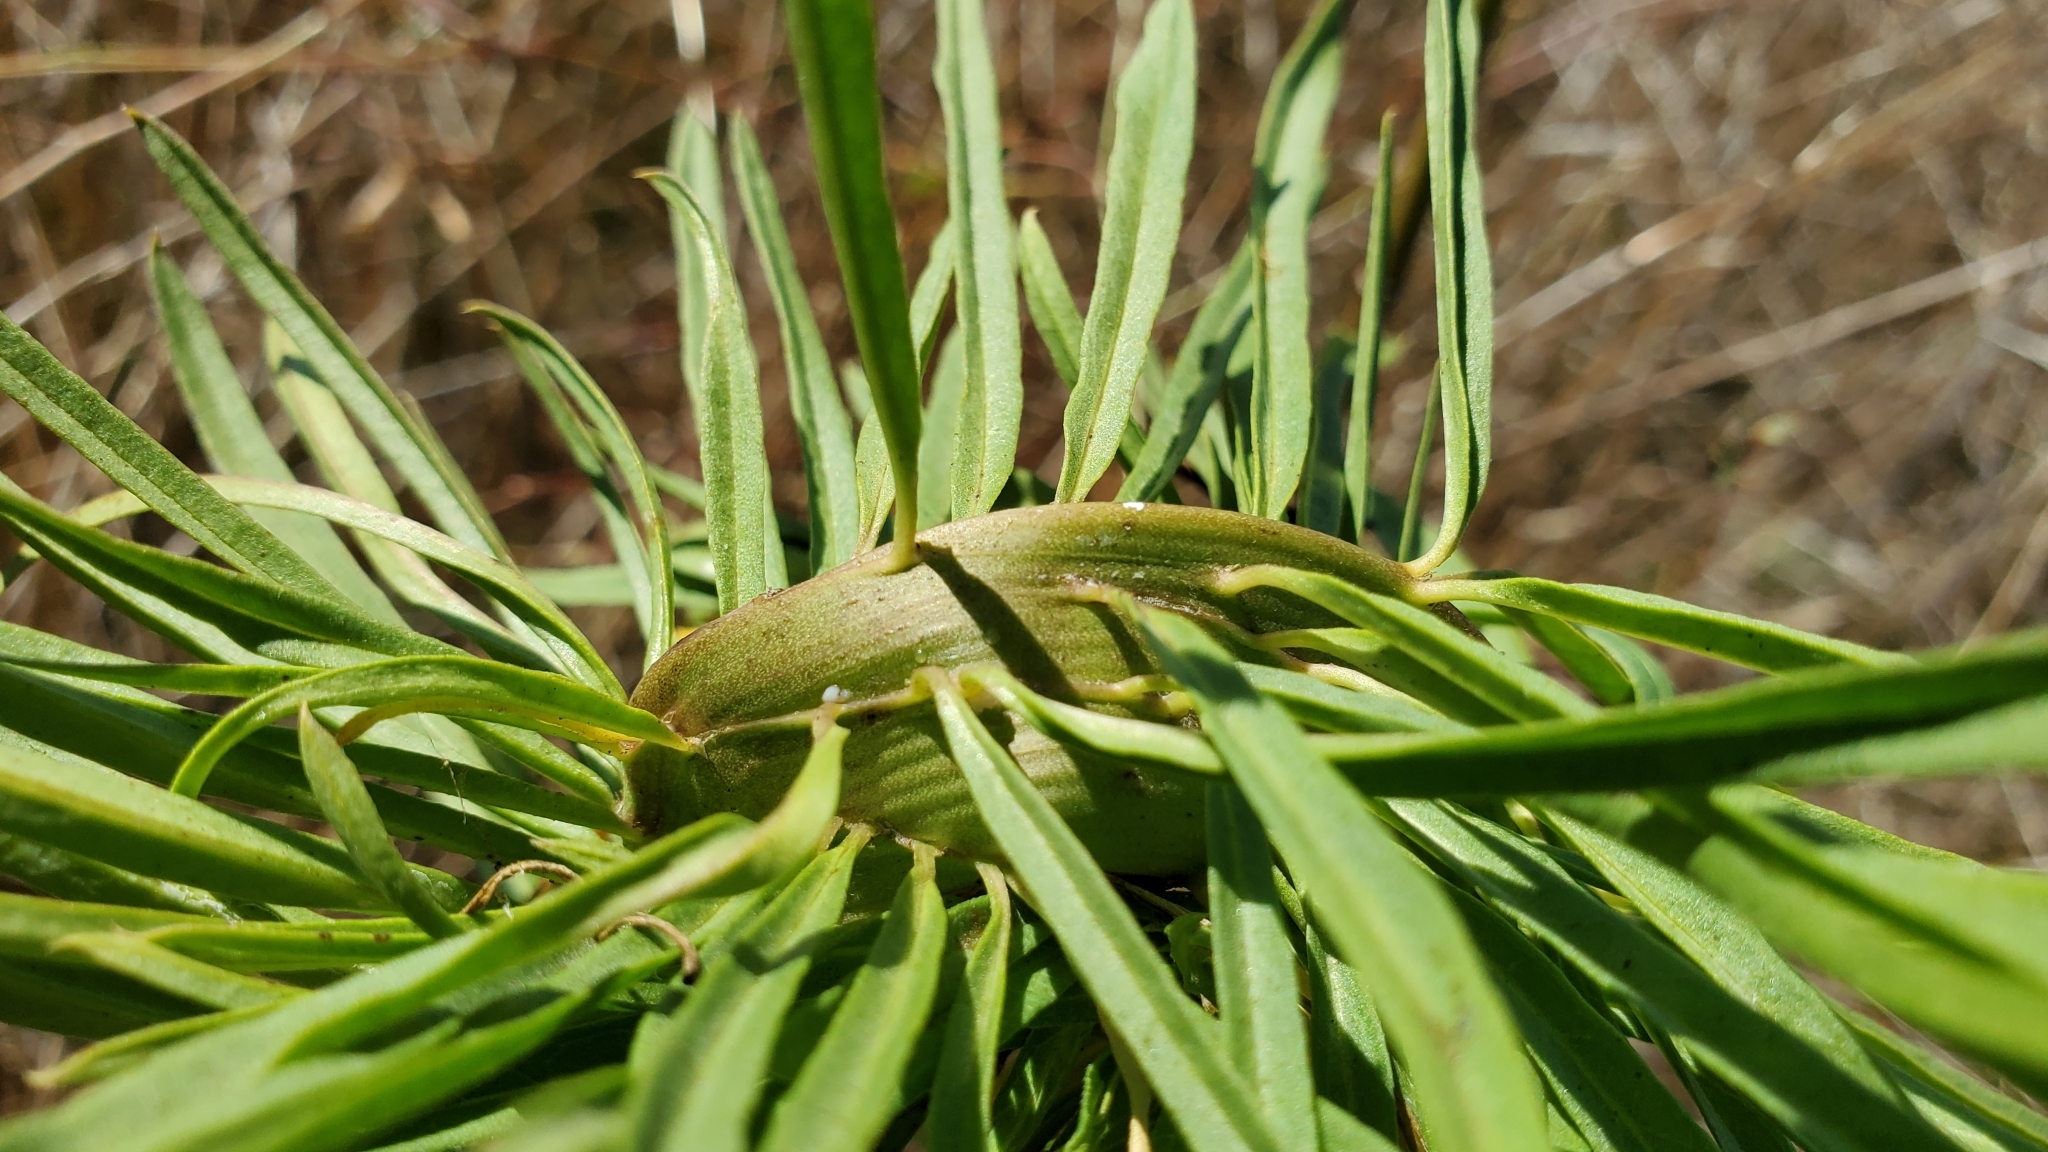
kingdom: Plantae
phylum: Tracheophyta
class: Magnoliopsida
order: Gentianales
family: Apocynaceae
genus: Asclepias
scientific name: Asclepias fascicularis
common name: Mexican milkweed
